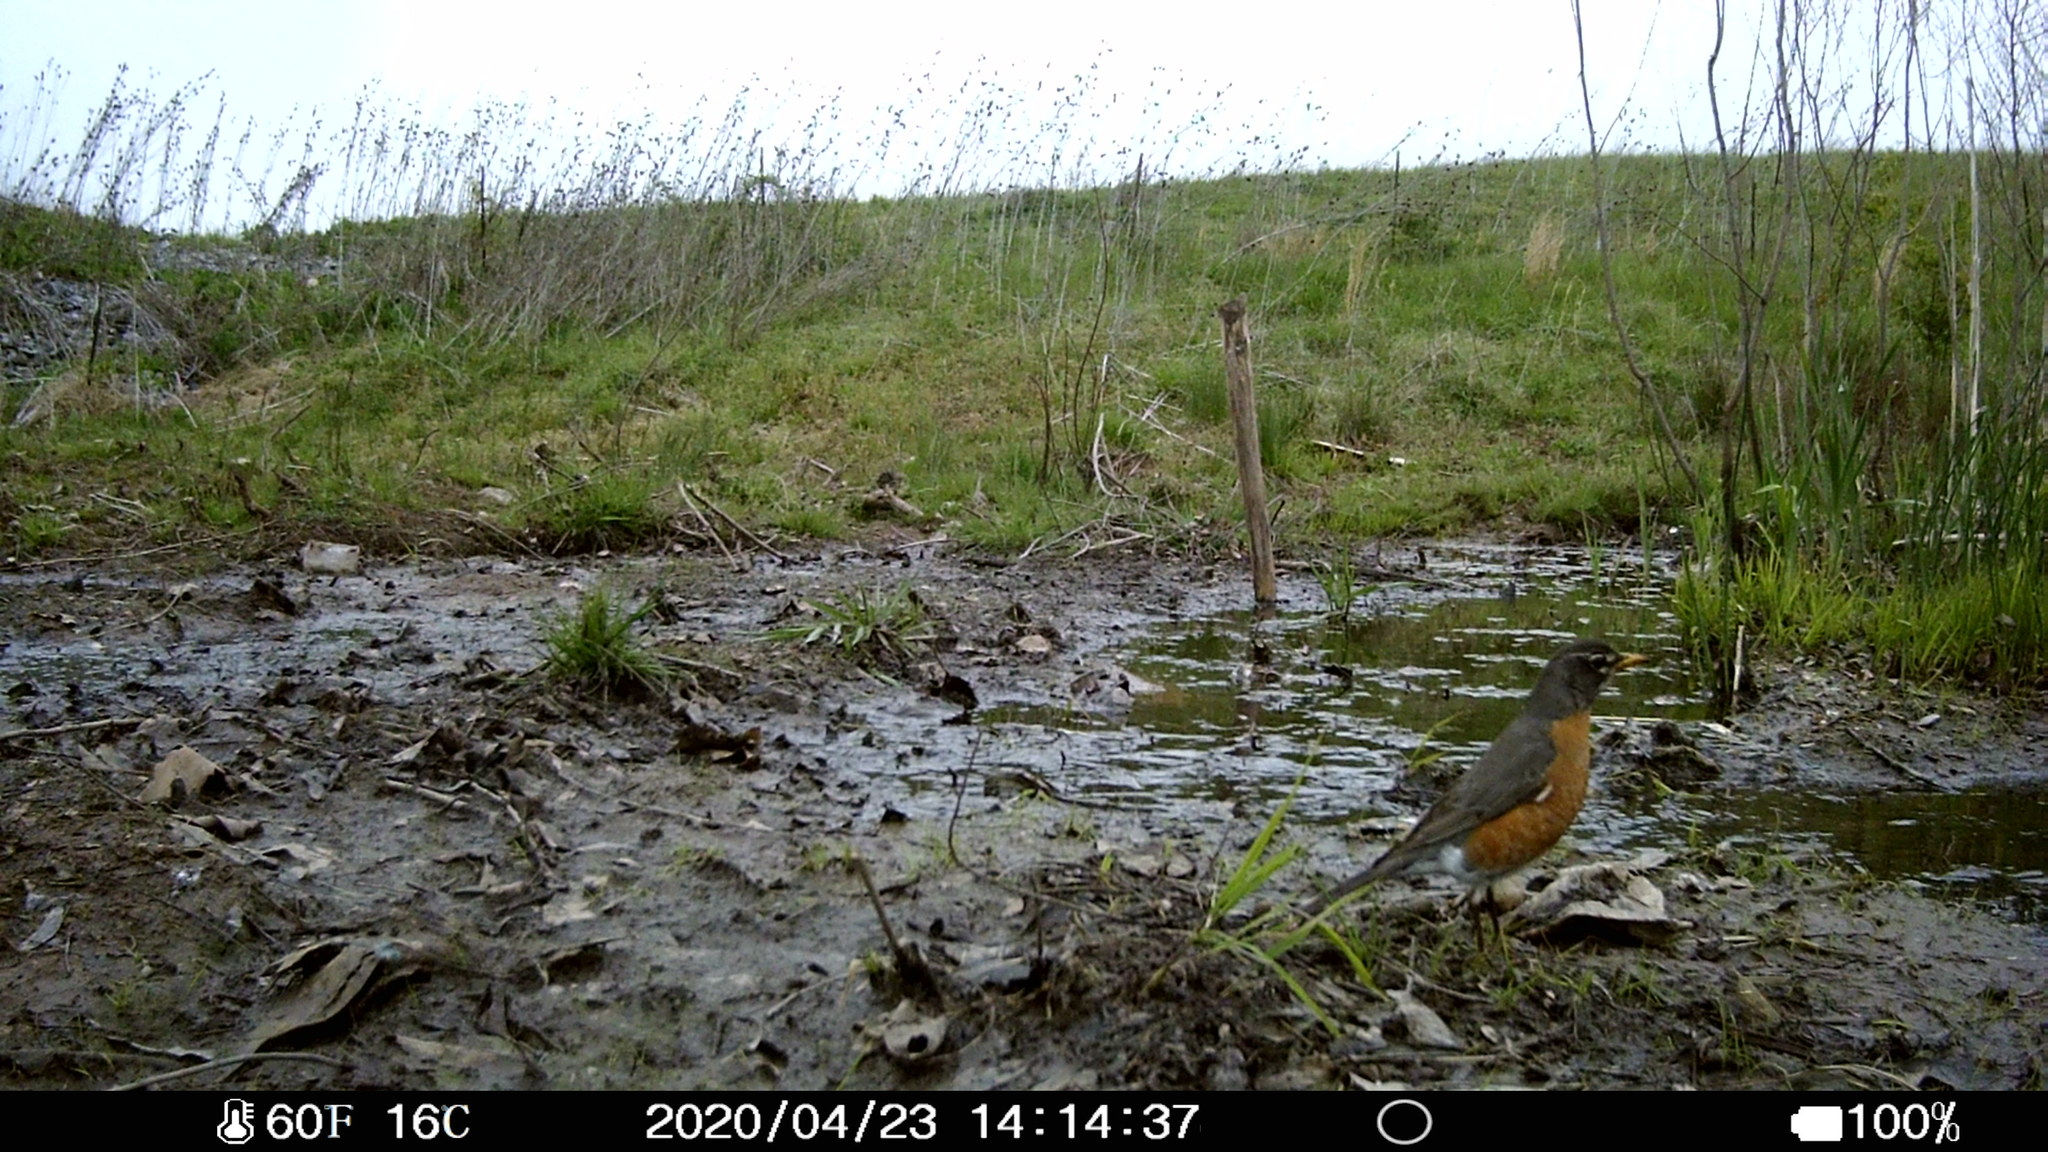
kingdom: Animalia
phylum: Chordata
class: Aves
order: Passeriformes
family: Turdidae
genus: Turdus
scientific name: Turdus migratorius
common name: American robin
